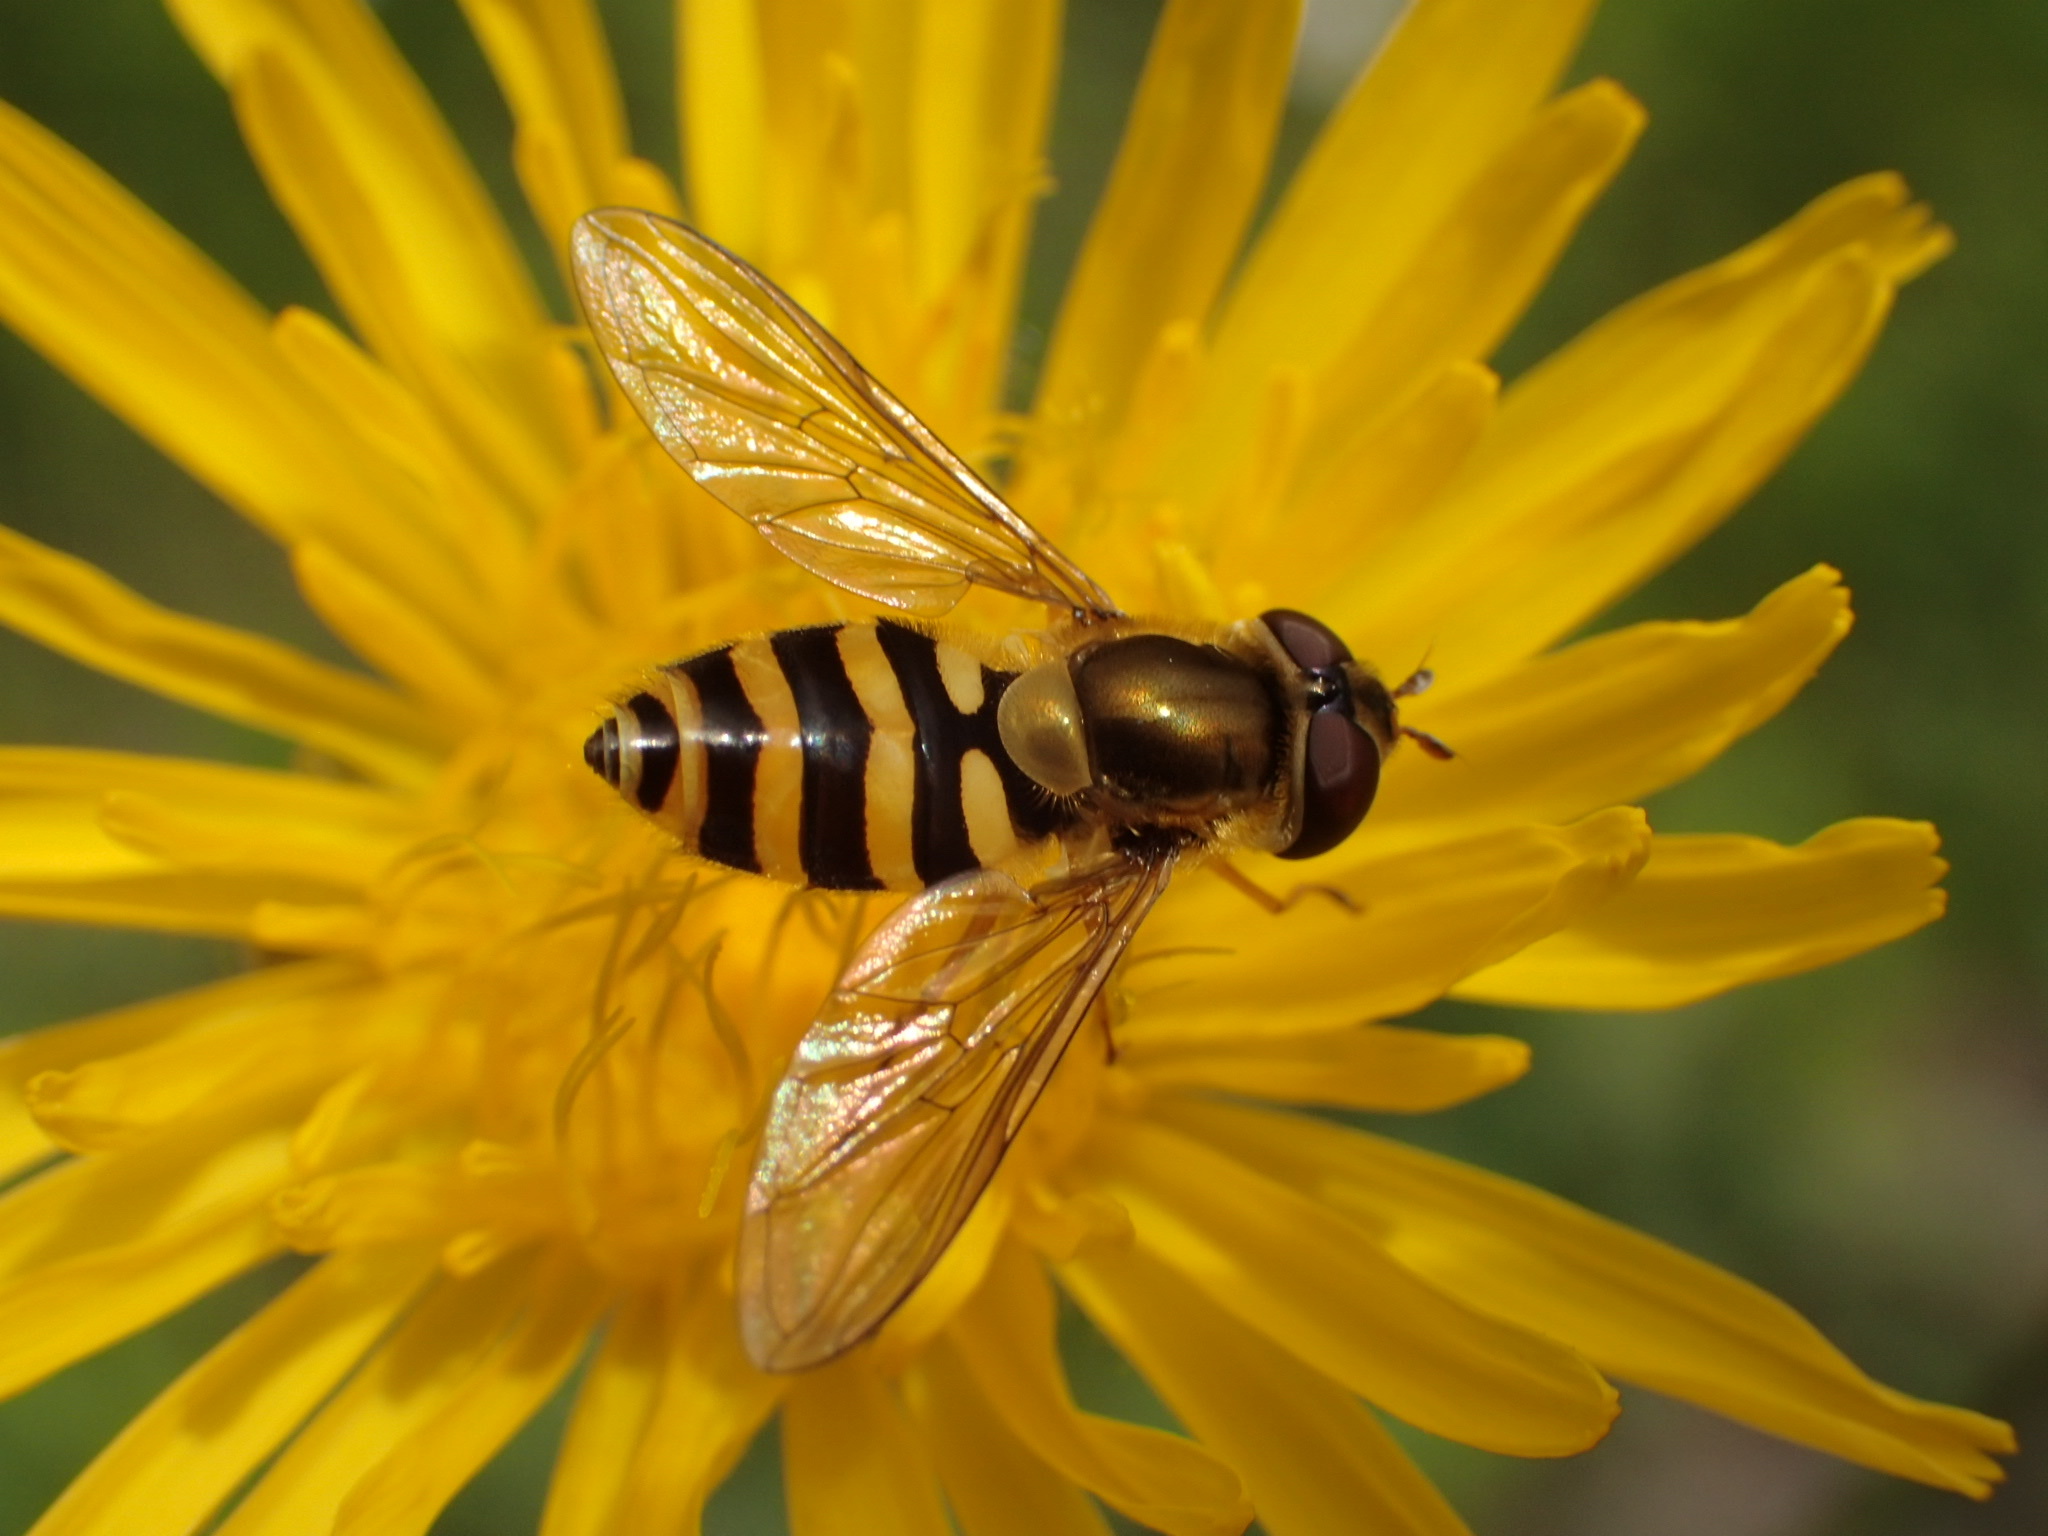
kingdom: Animalia
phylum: Arthropoda
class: Insecta
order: Diptera
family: Syrphidae
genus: Syrphus
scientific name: Syrphus ribesii
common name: Common flower fly
